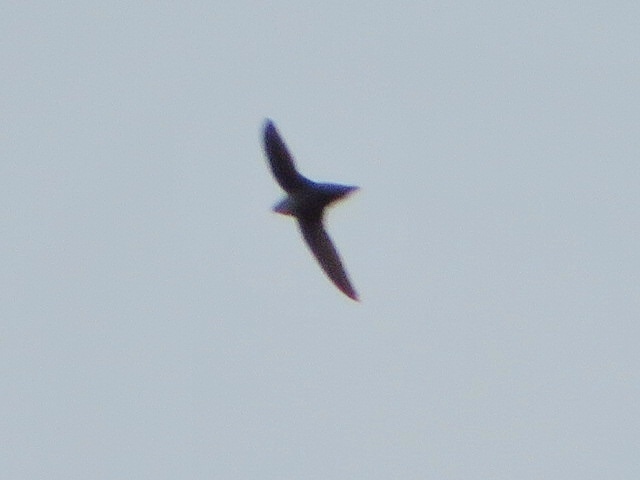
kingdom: Animalia
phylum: Chordata
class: Aves
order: Apodiformes
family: Apodidae
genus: Chaetura
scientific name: Chaetura pelagica
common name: Chimney swift
